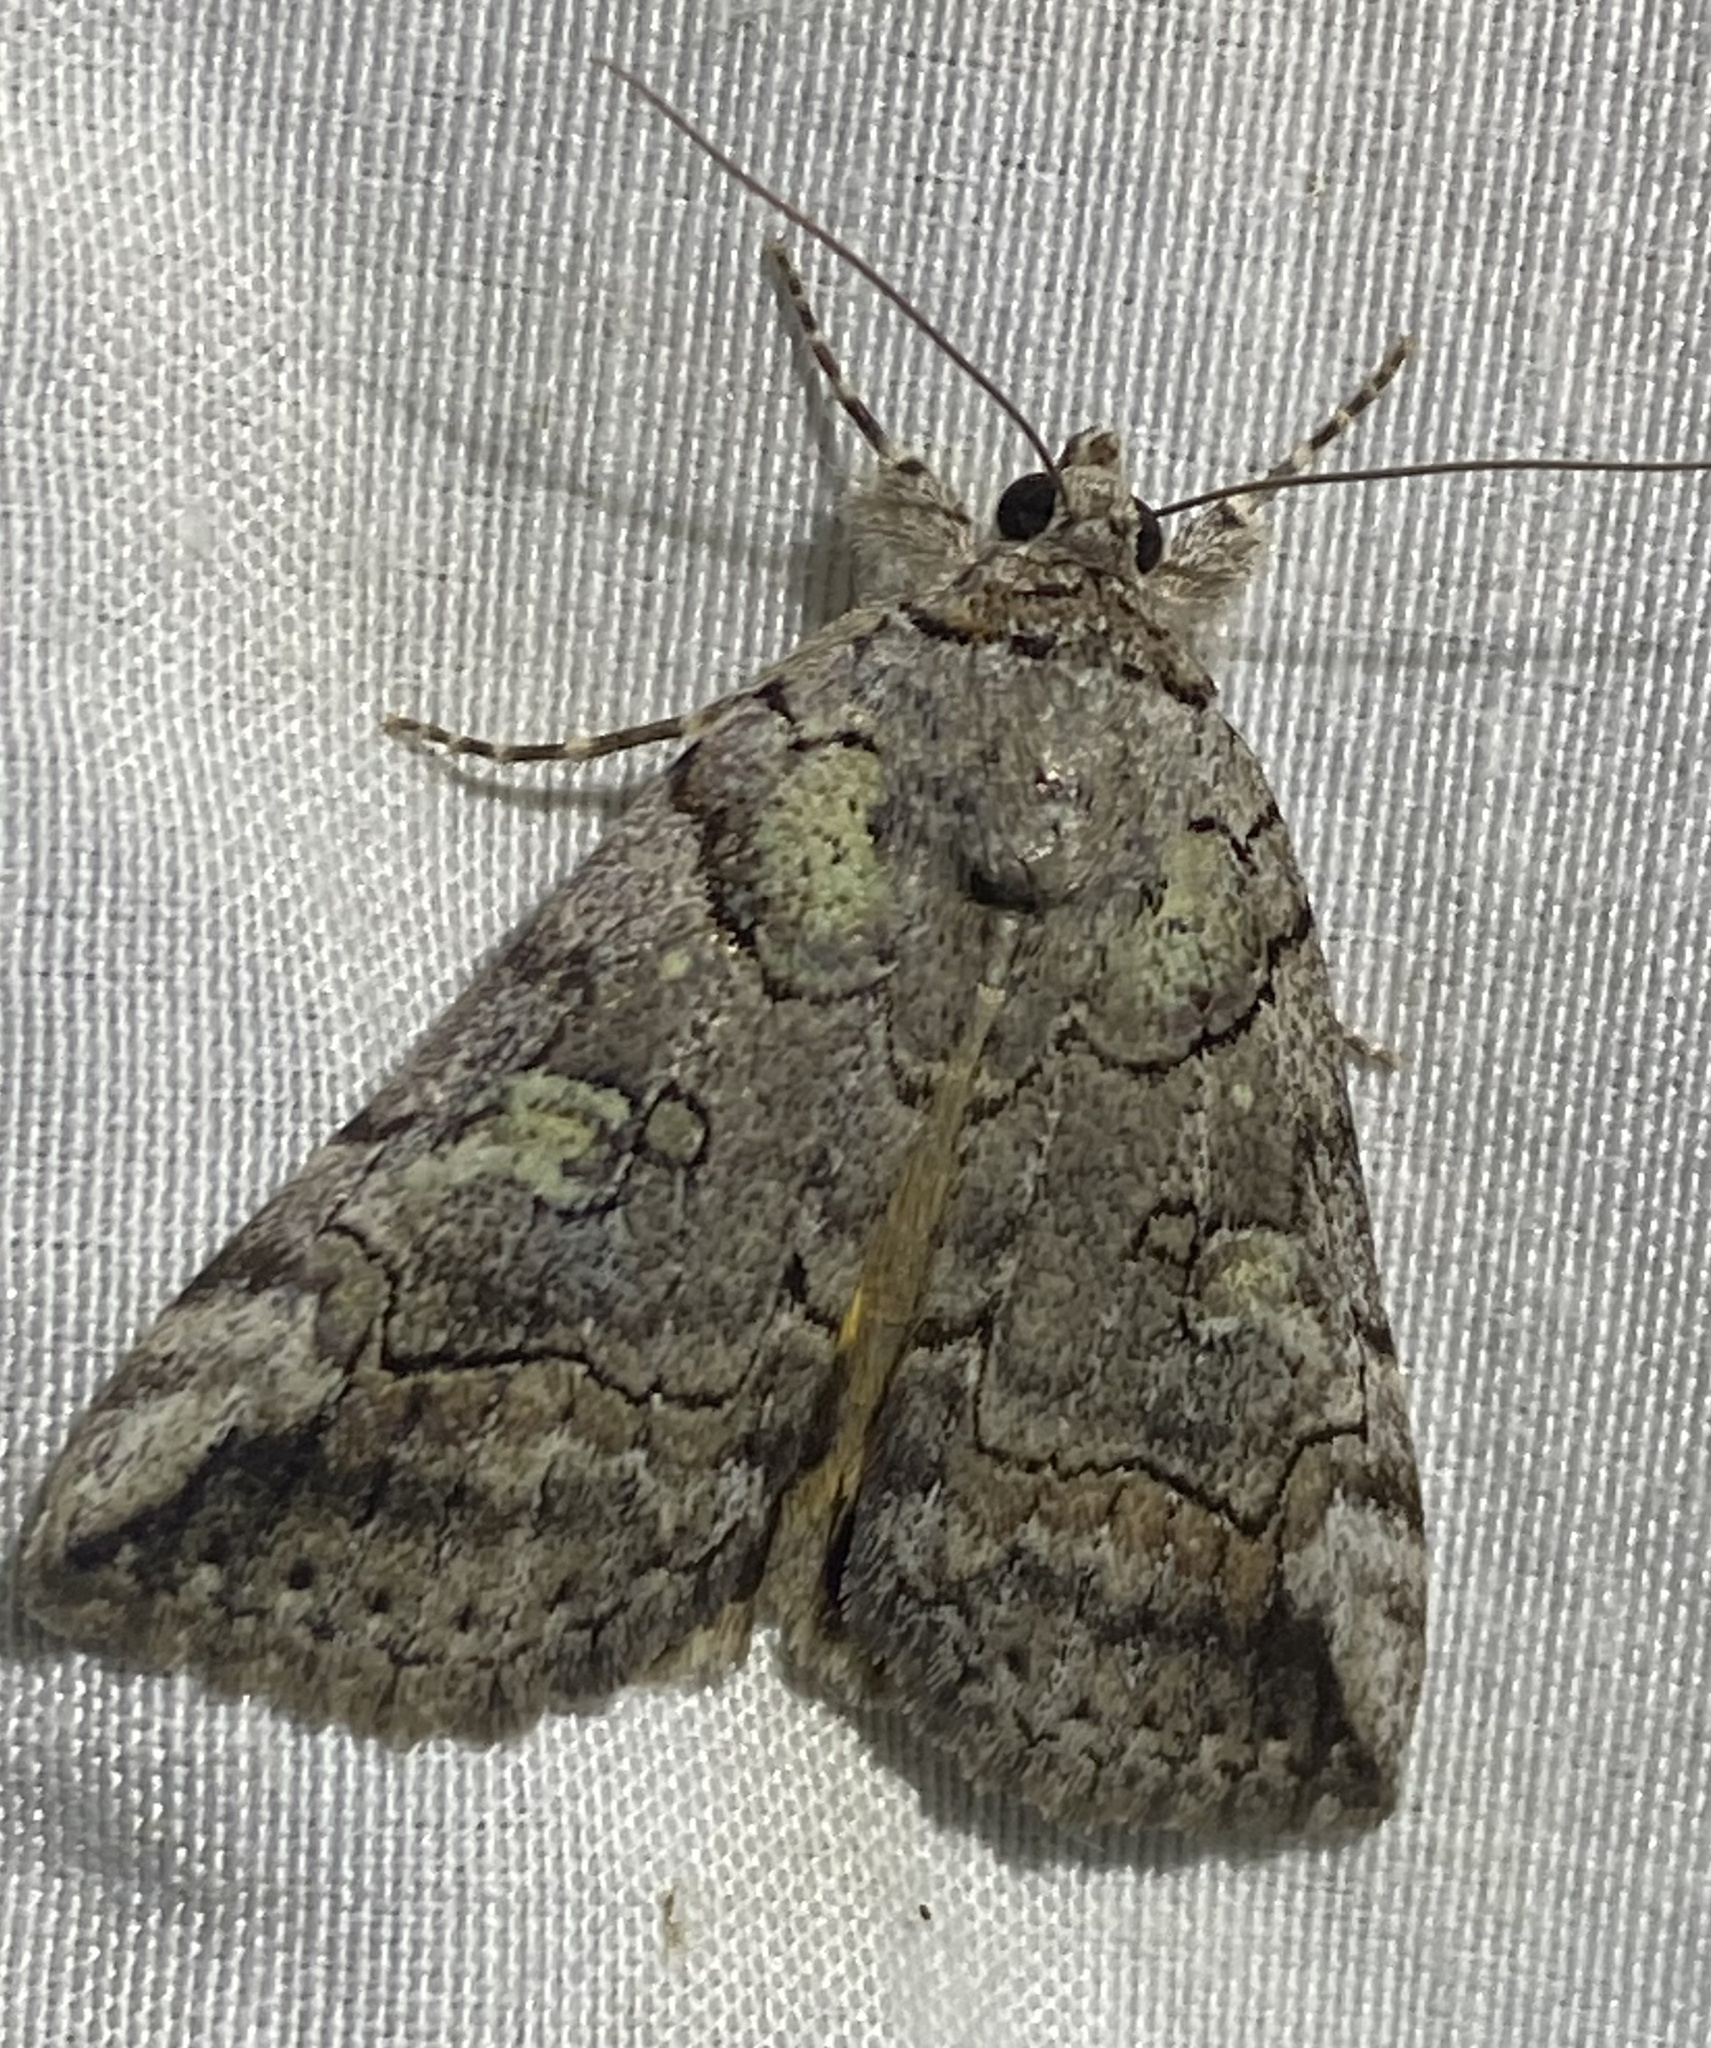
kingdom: Animalia
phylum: Arthropoda
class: Insecta
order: Lepidoptera
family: Erebidae
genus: Catocala
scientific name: Catocala similis
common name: Similar underwing
